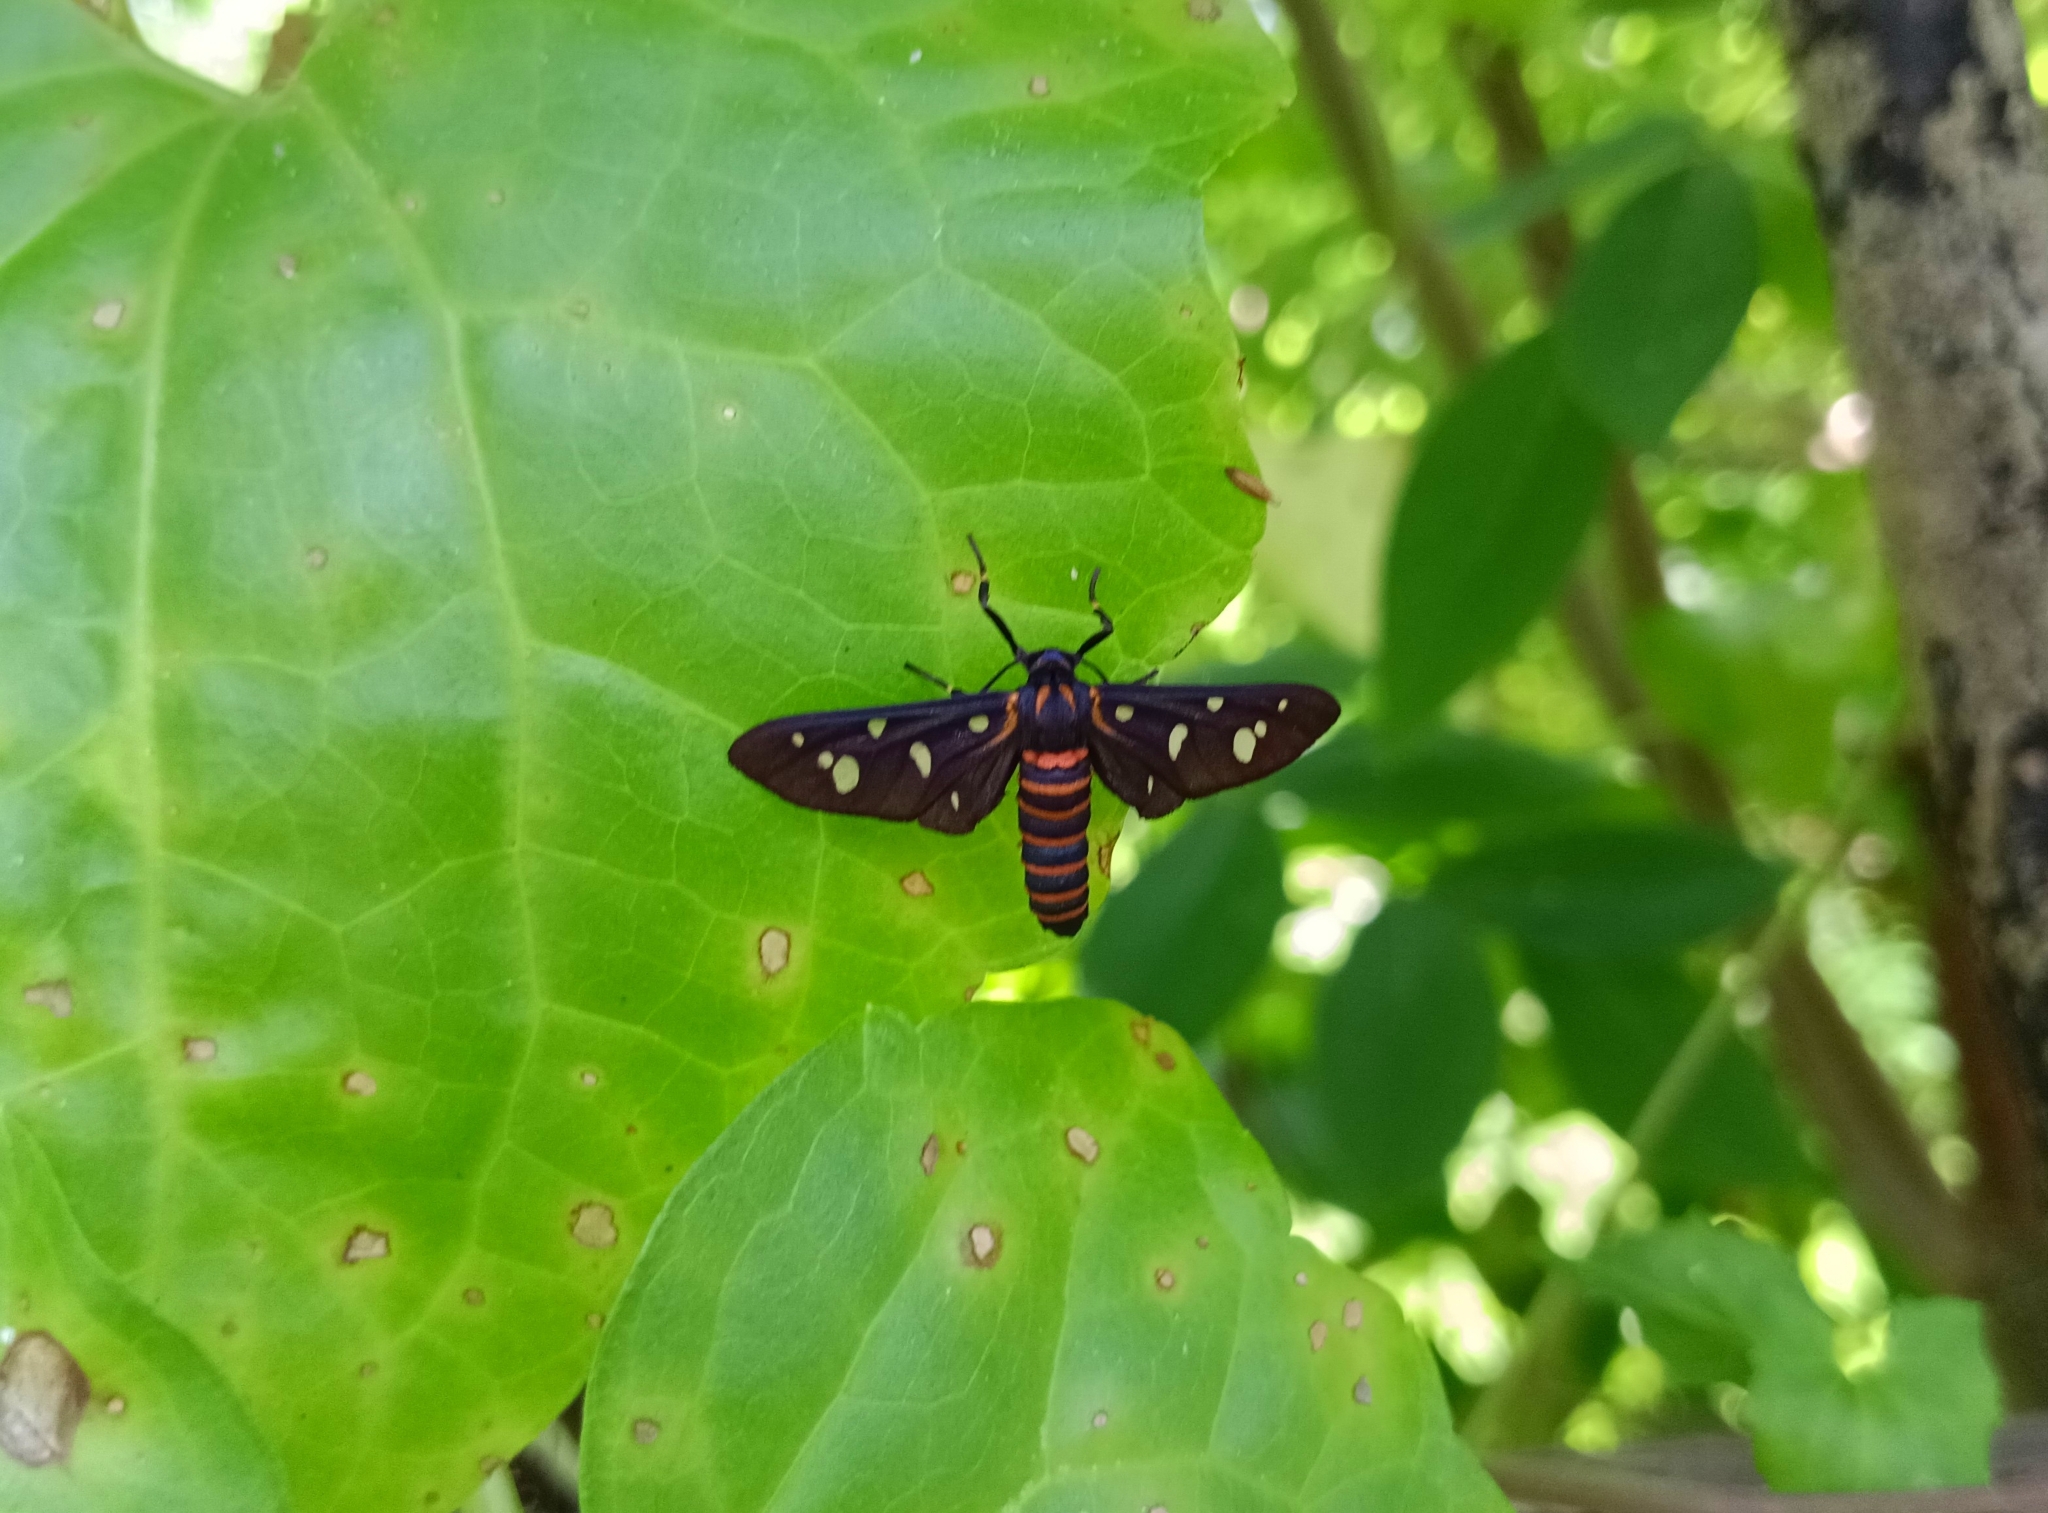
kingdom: Animalia
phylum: Arthropoda
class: Insecta
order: Lepidoptera
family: Erebidae
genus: Amata
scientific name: Amata passalis
